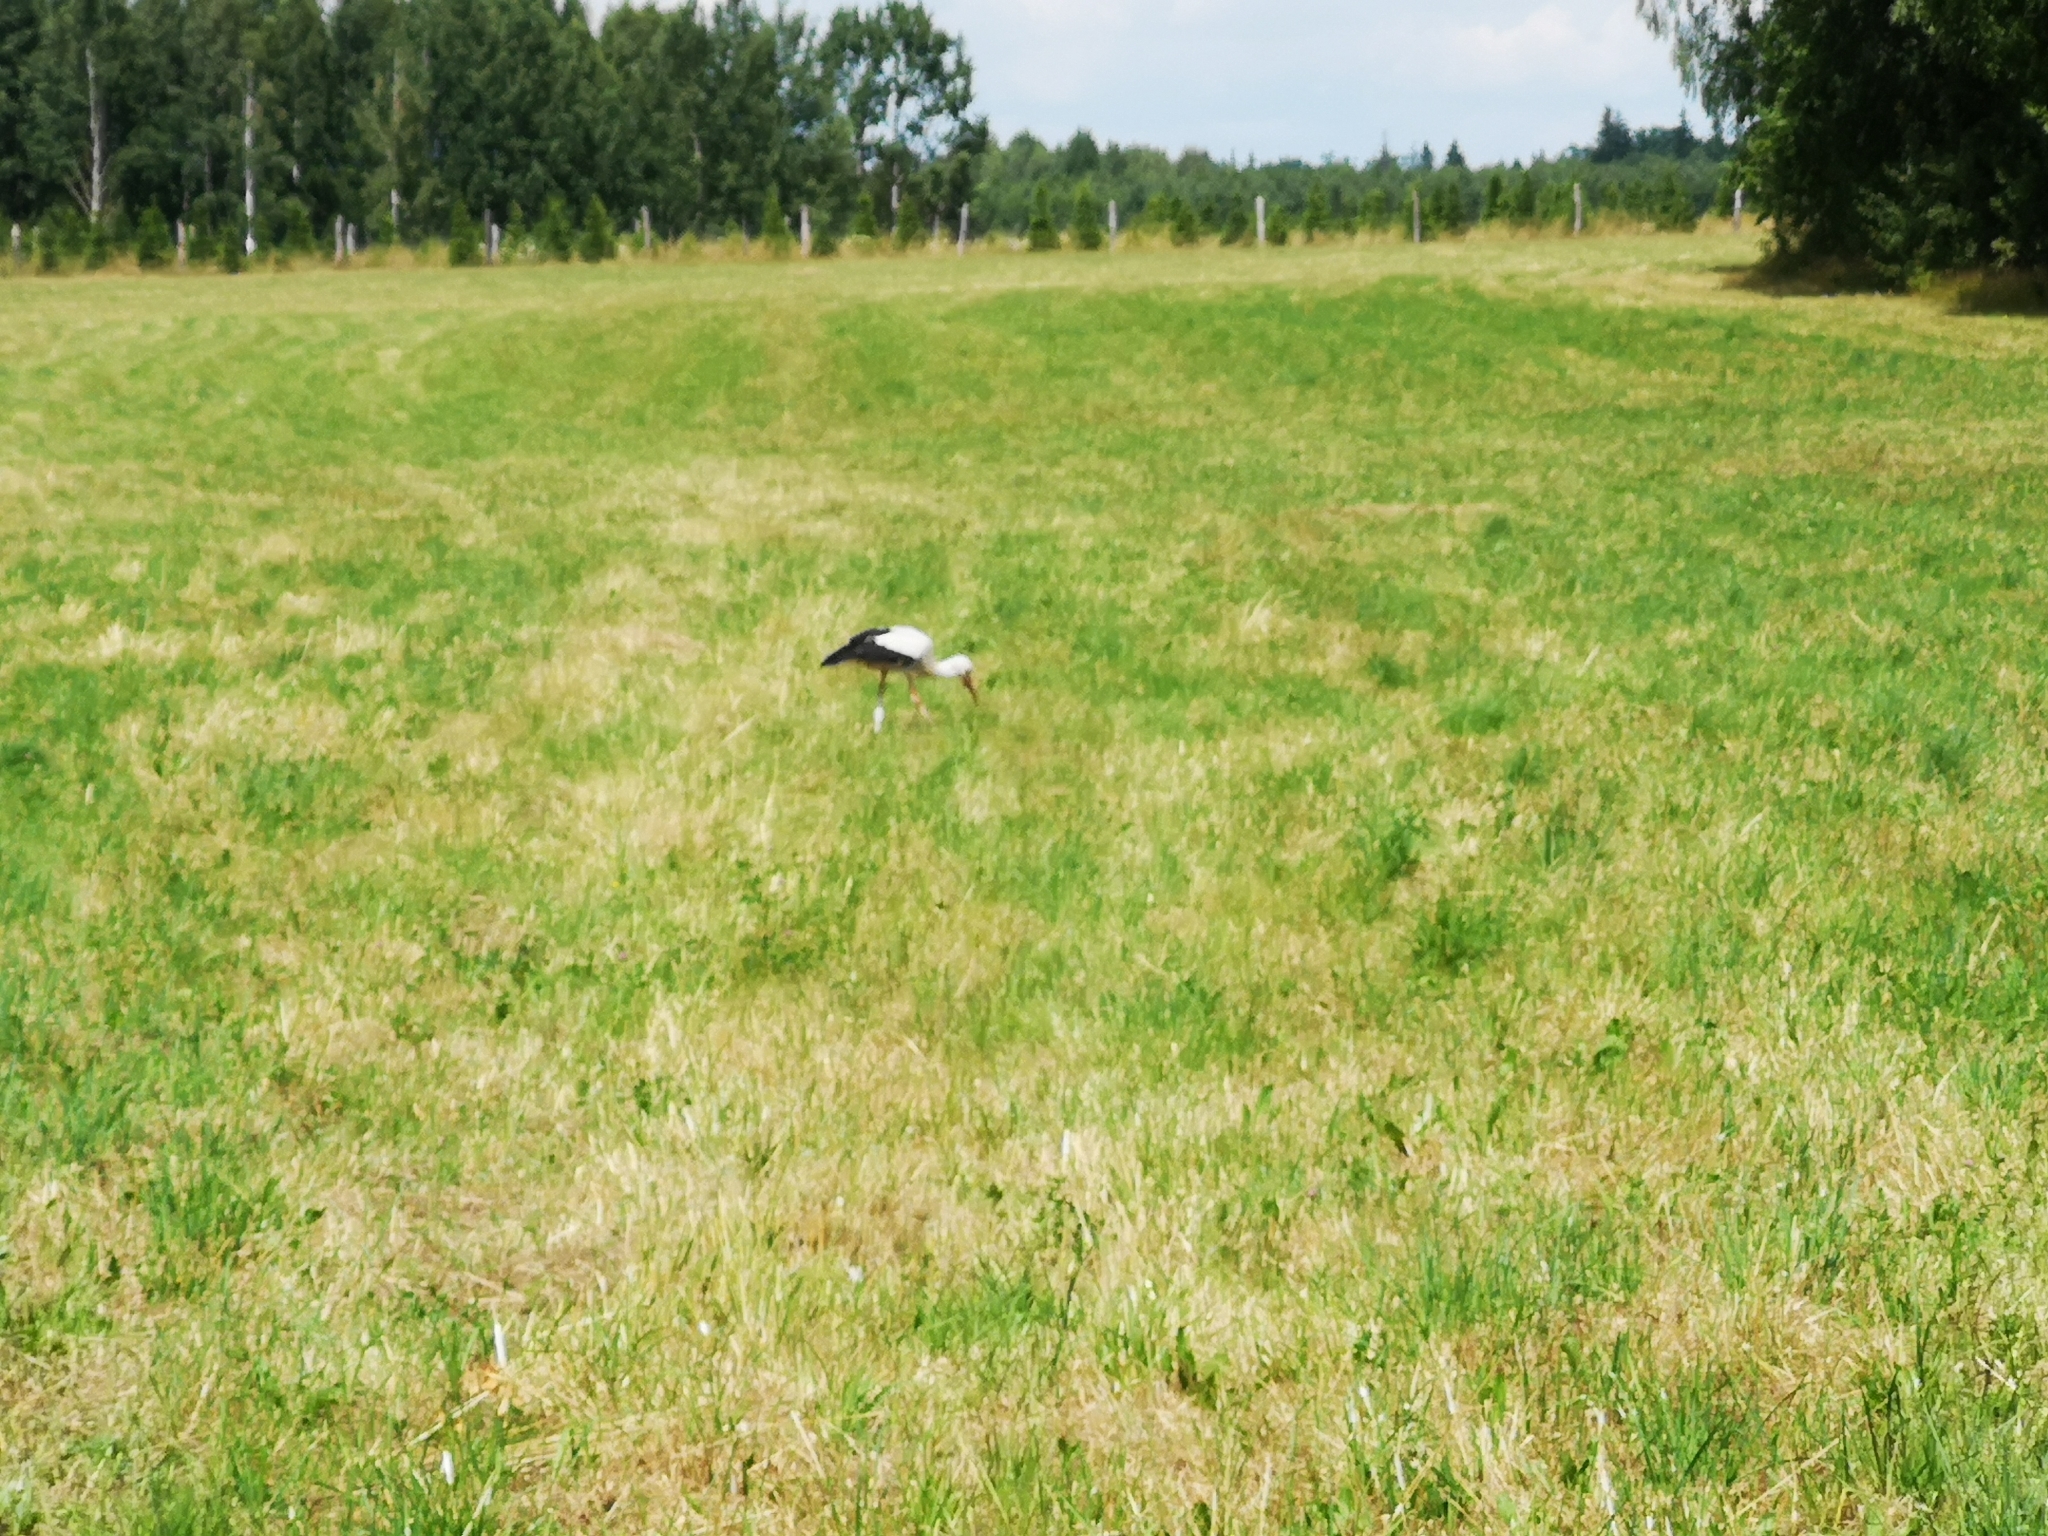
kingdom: Animalia
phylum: Chordata
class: Aves
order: Ciconiiformes
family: Ciconiidae
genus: Ciconia
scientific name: Ciconia ciconia
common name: White stork
